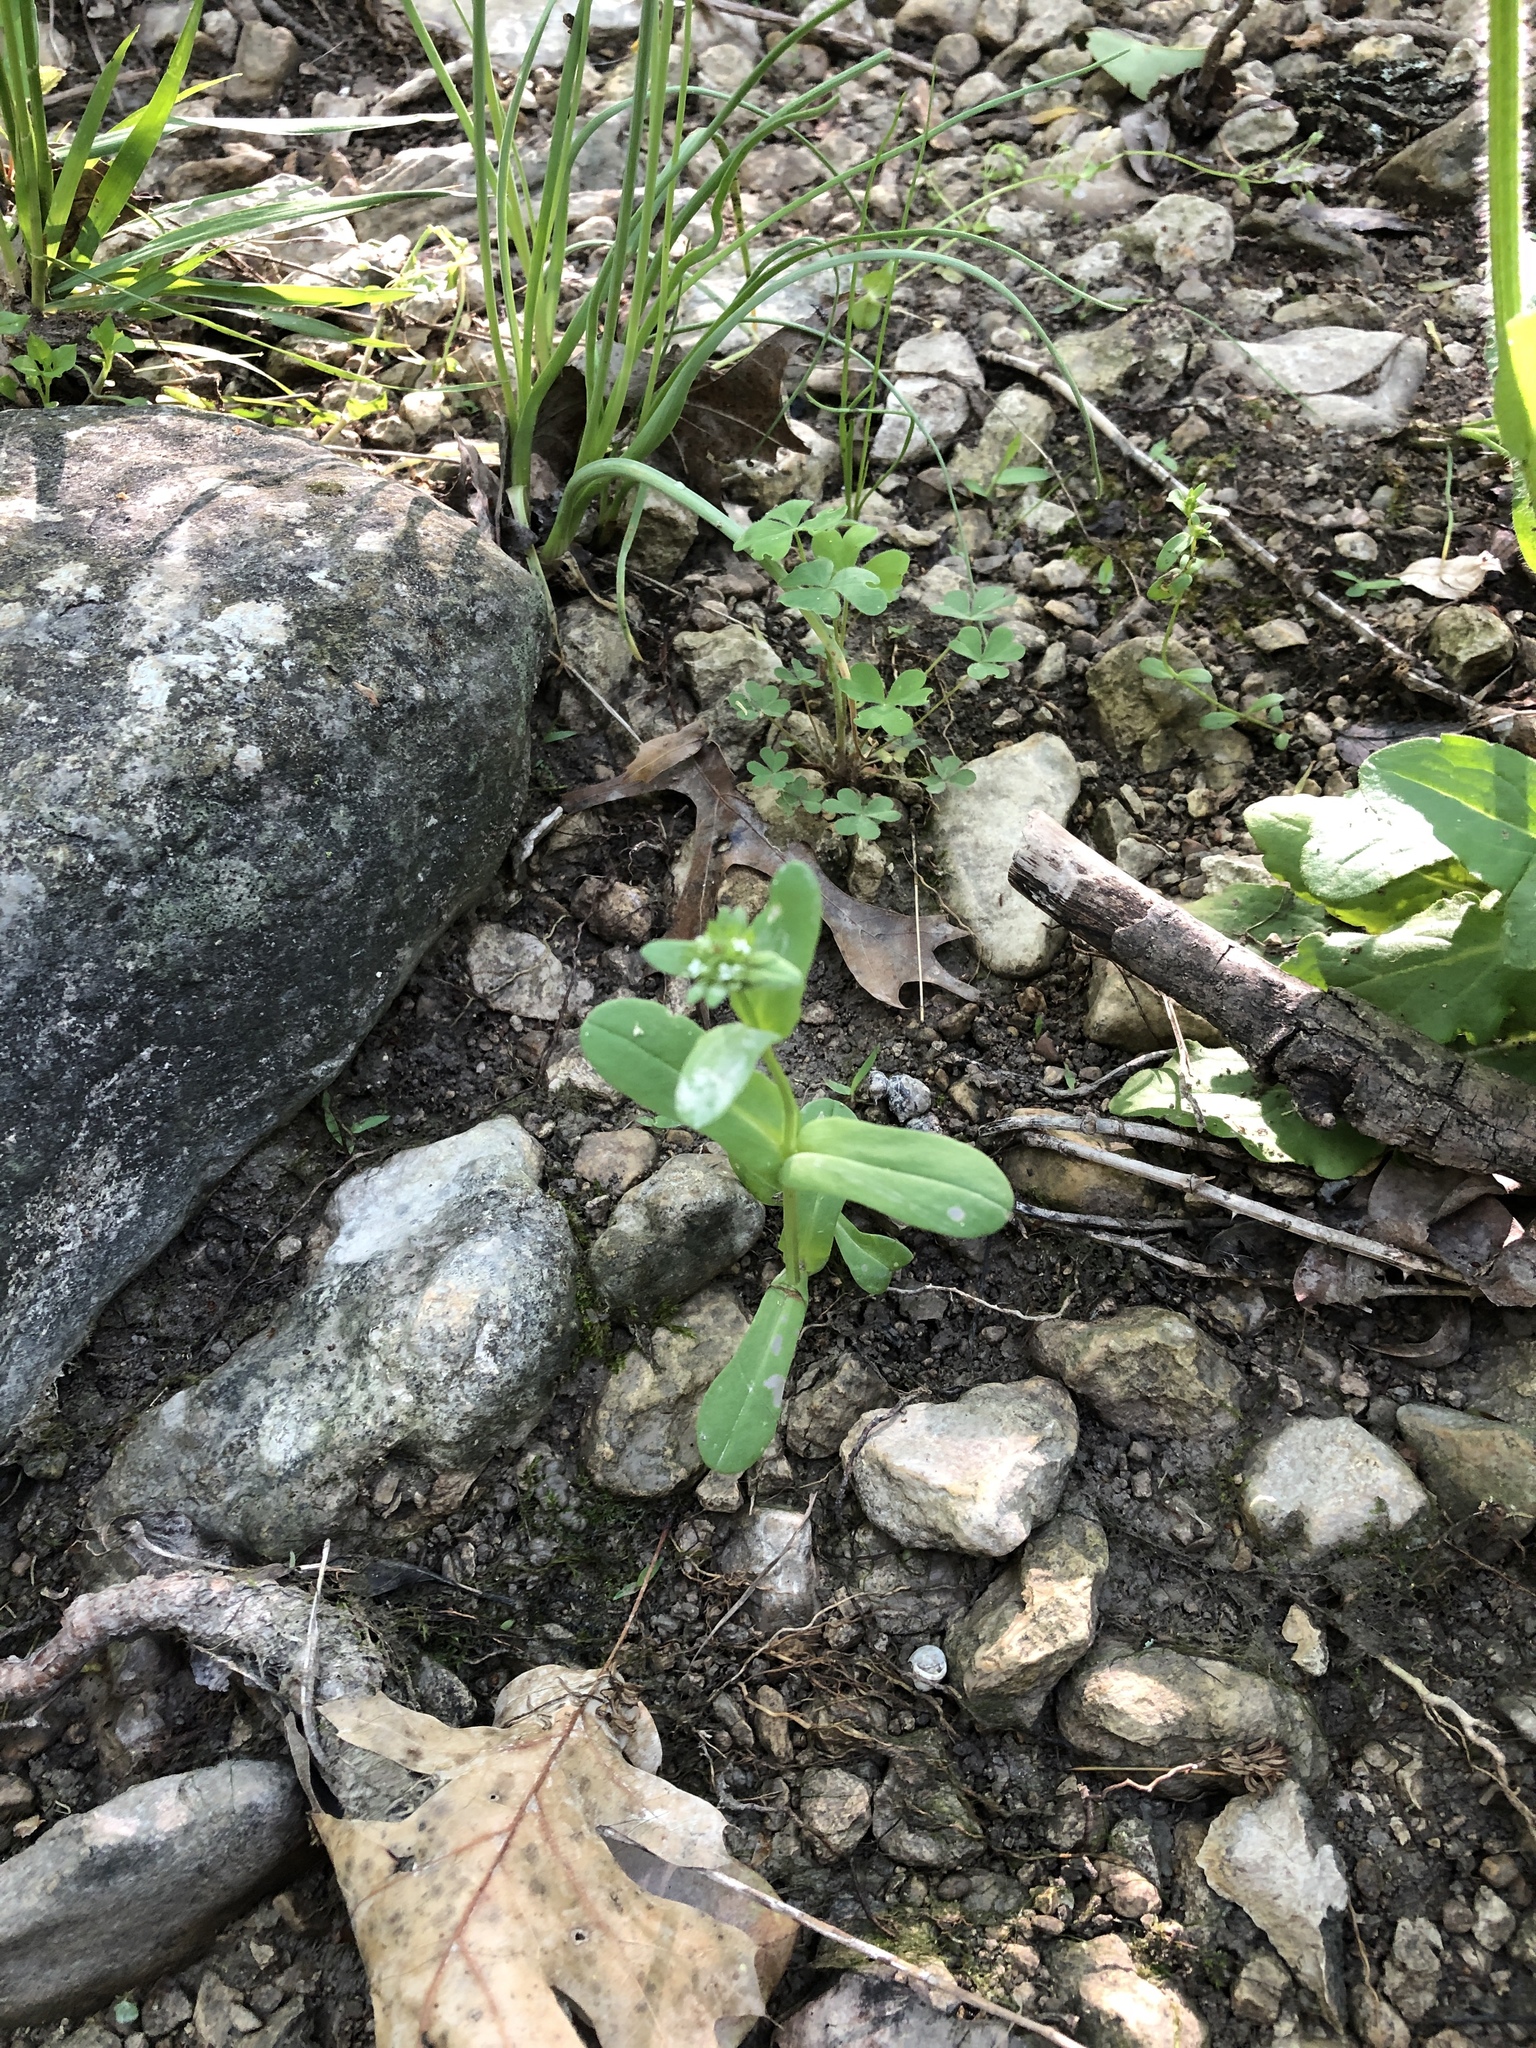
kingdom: Plantae
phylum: Tracheophyta
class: Magnoliopsida
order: Dipsacales
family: Caprifoliaceae
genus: Valerianella
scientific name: Valerianella radiata
